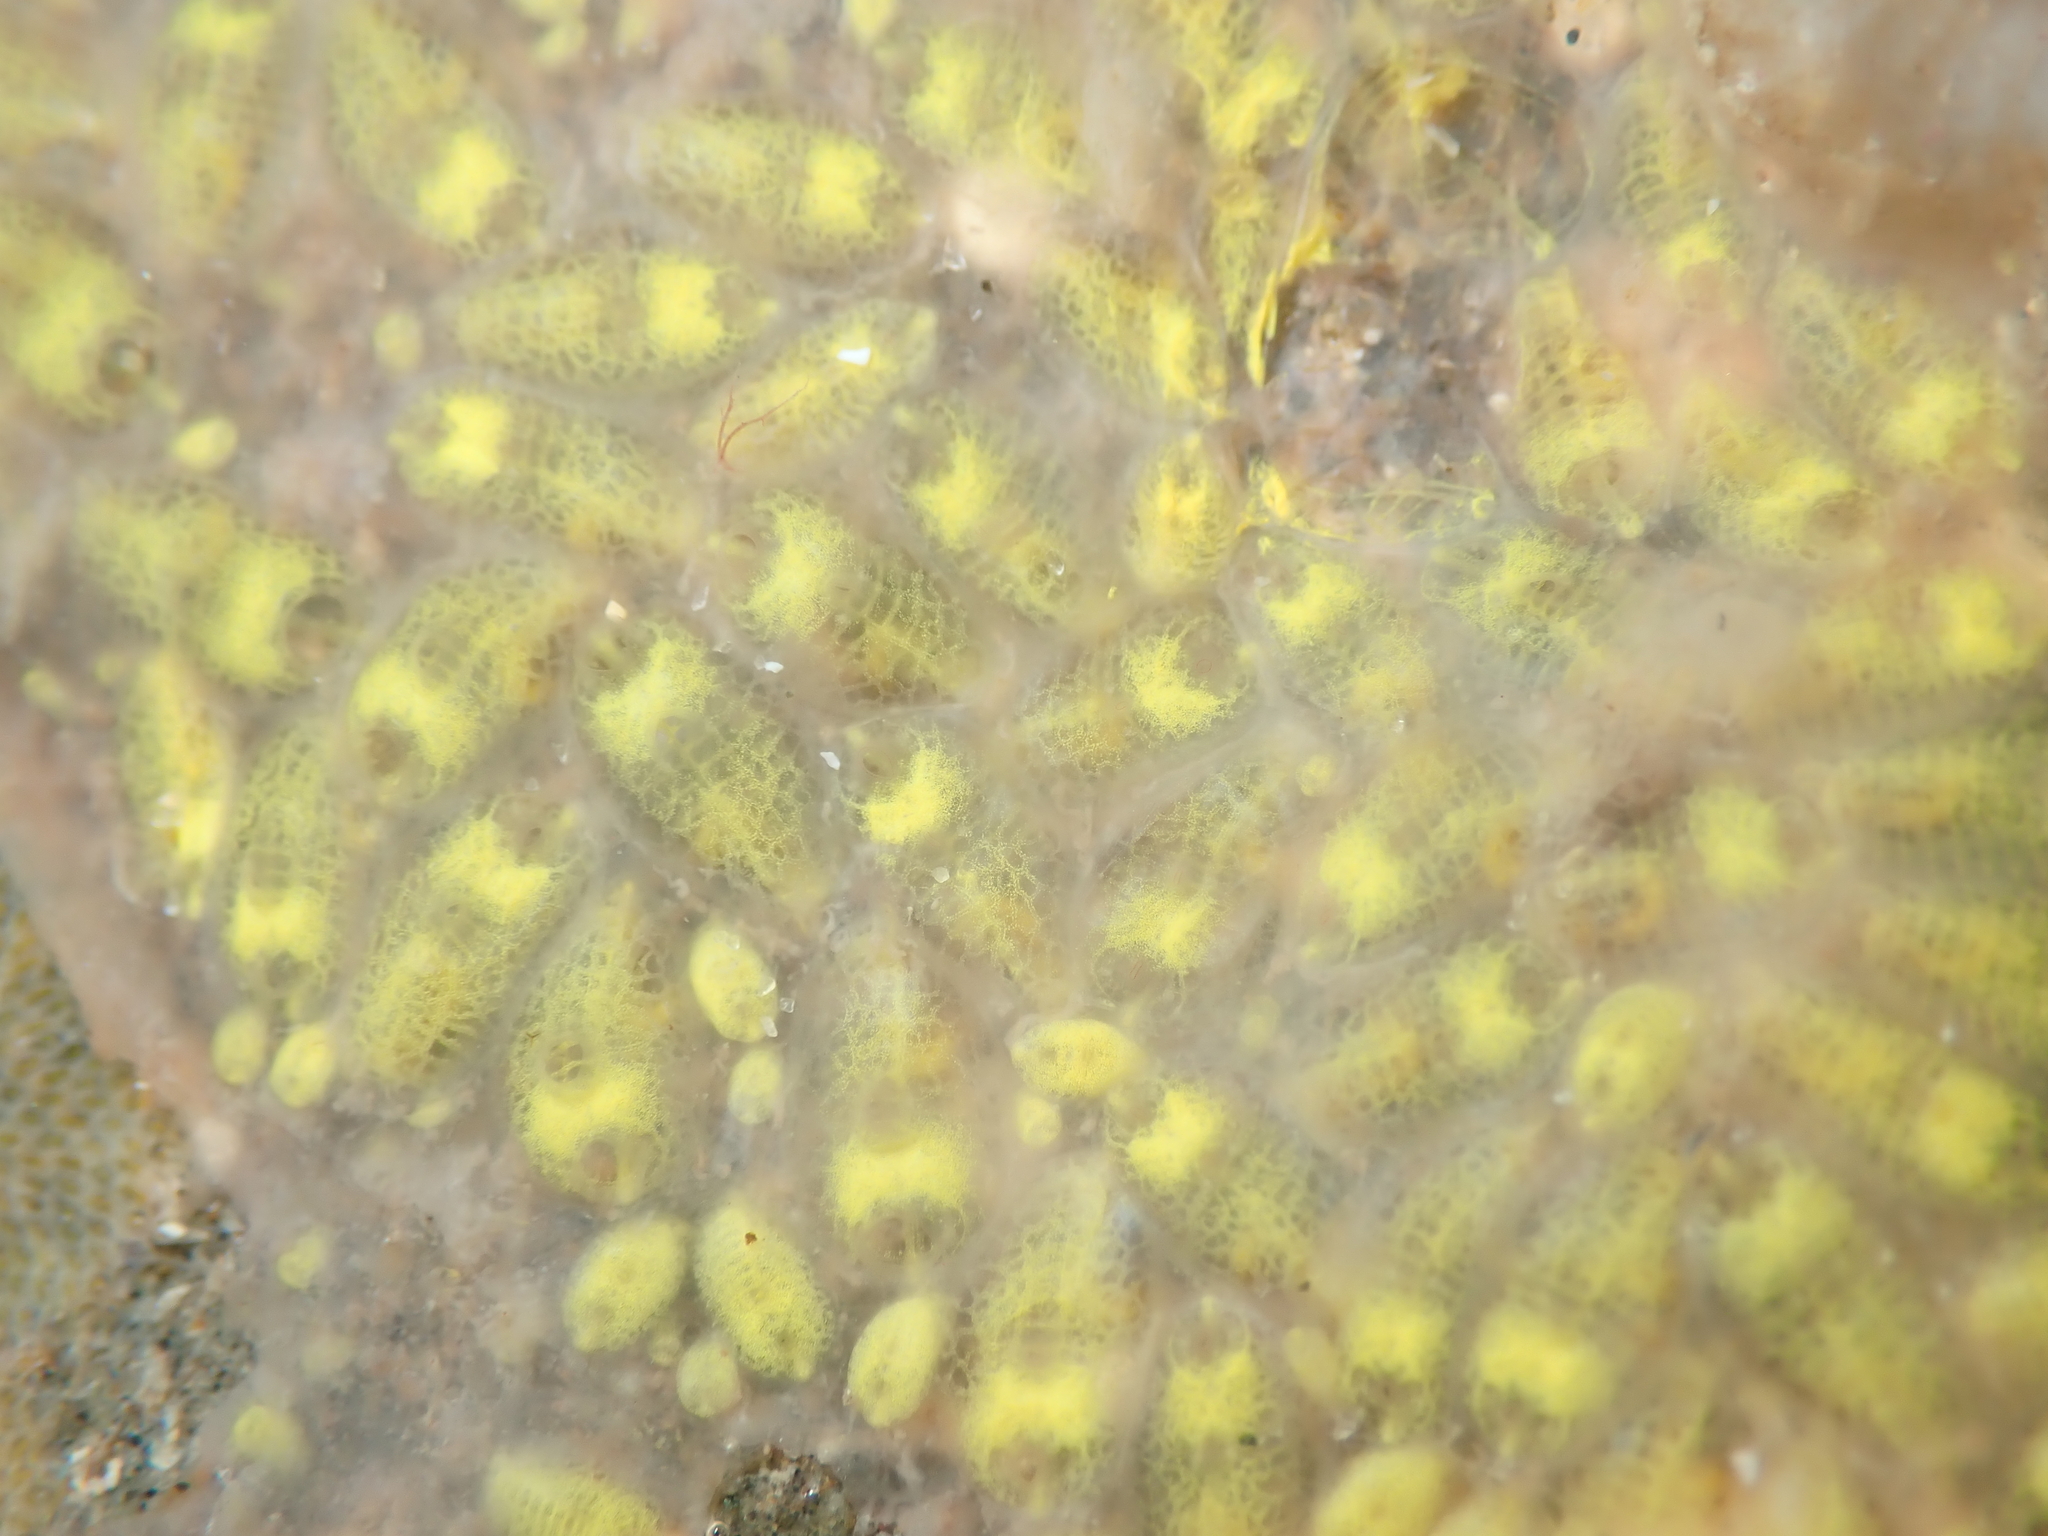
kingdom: Animalia
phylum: Chordata
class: Ascidiacea
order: Stolidobranchia
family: Styelidae
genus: Symplegma
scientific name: Symplegma brakenhielmi
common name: Ascidian
